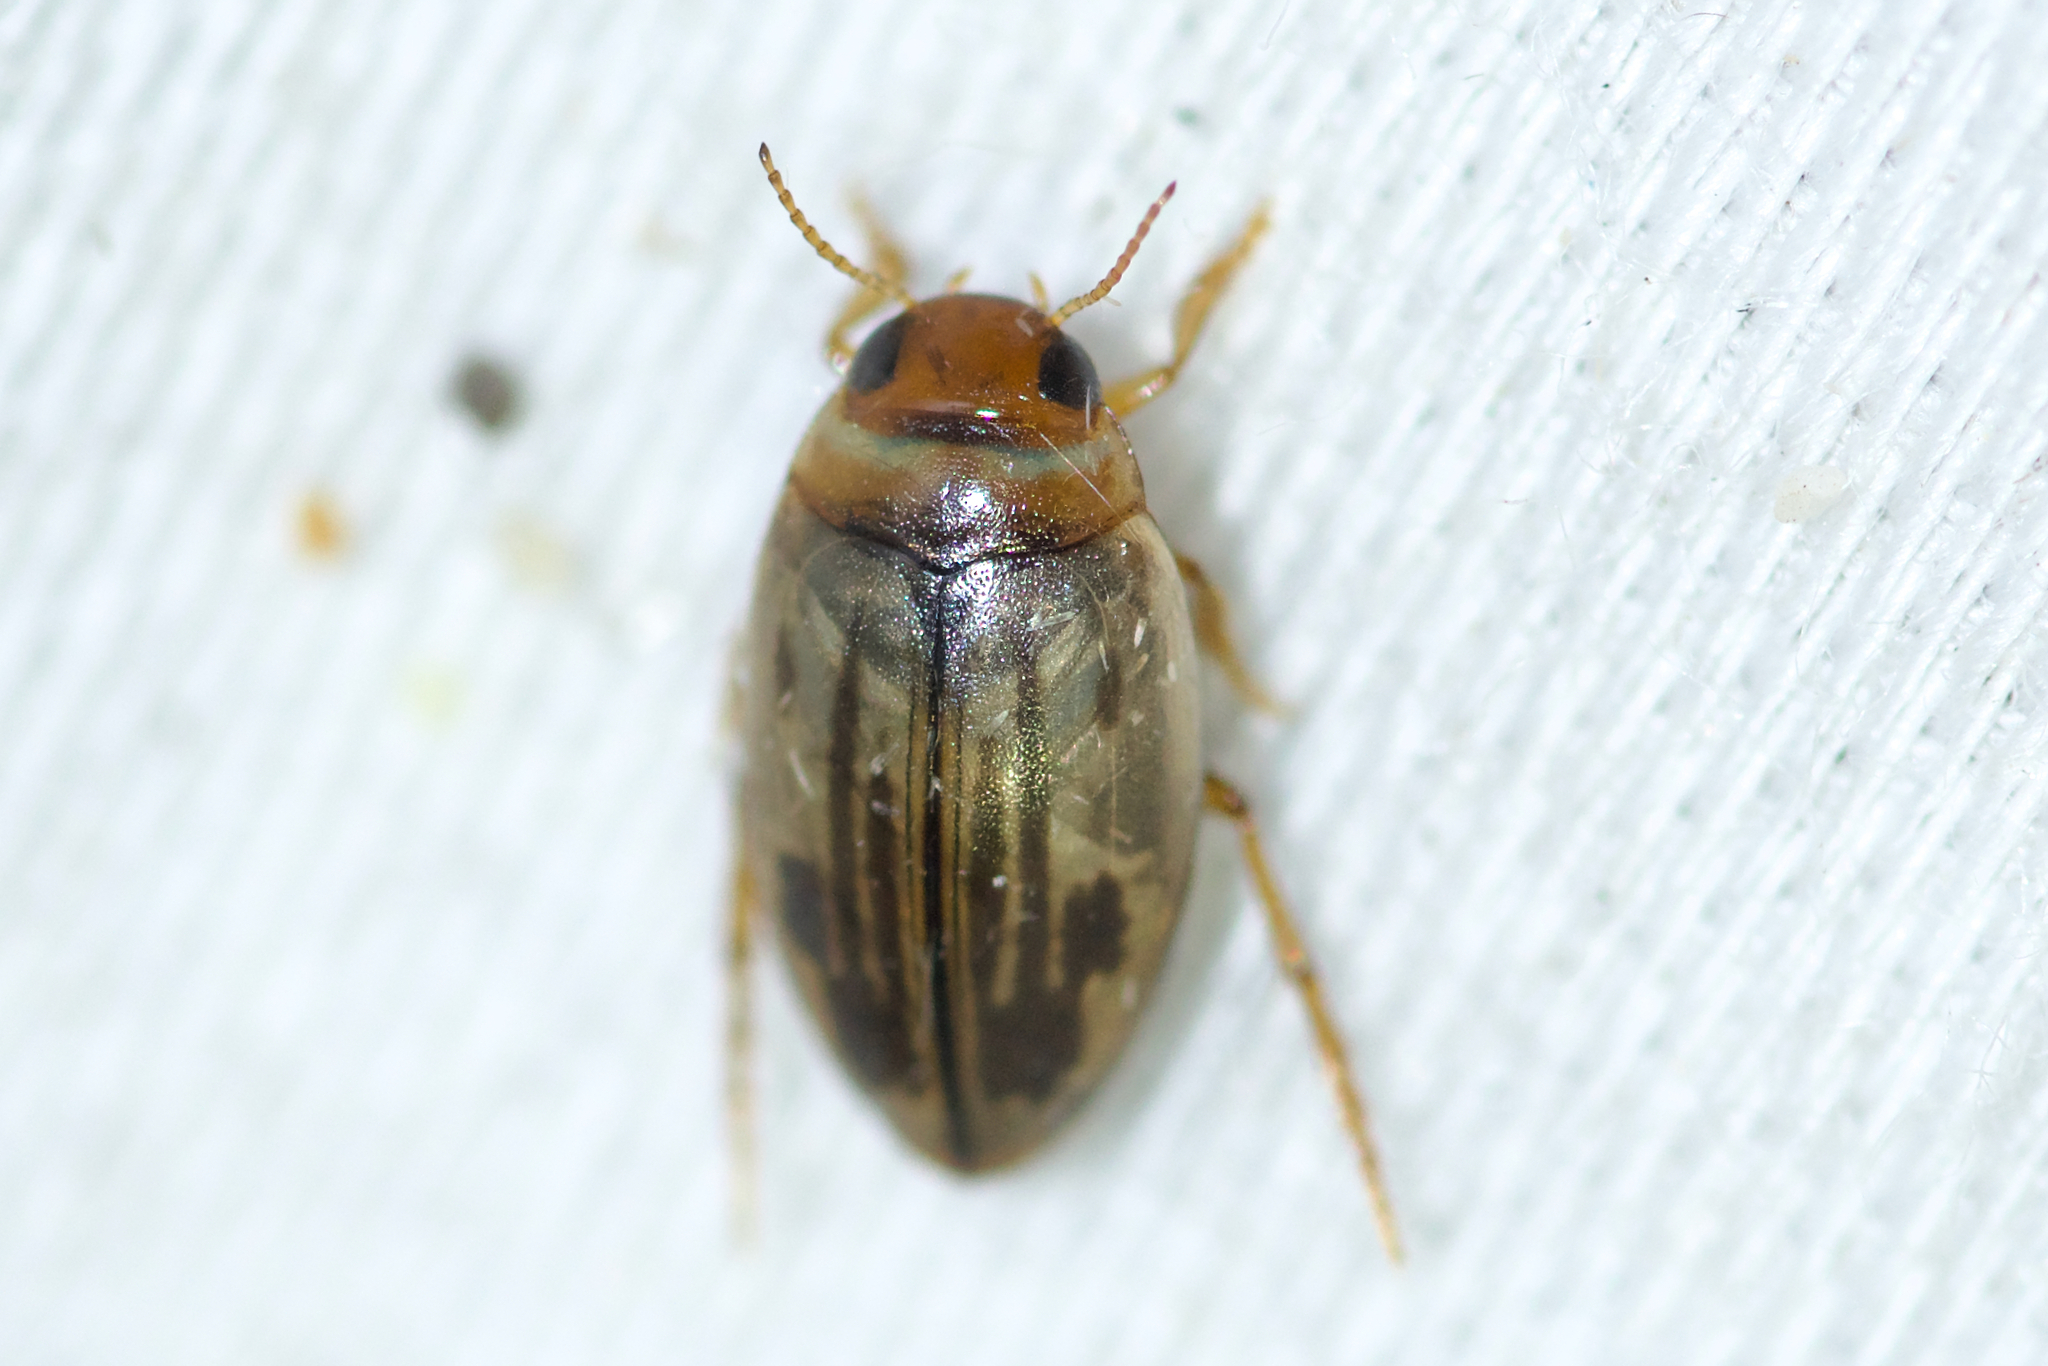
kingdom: Animalia
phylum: Arthropoda
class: Insecta
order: Coleoptera
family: Dytiscidae
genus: Hygrotus
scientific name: Hygrotus nubilus
